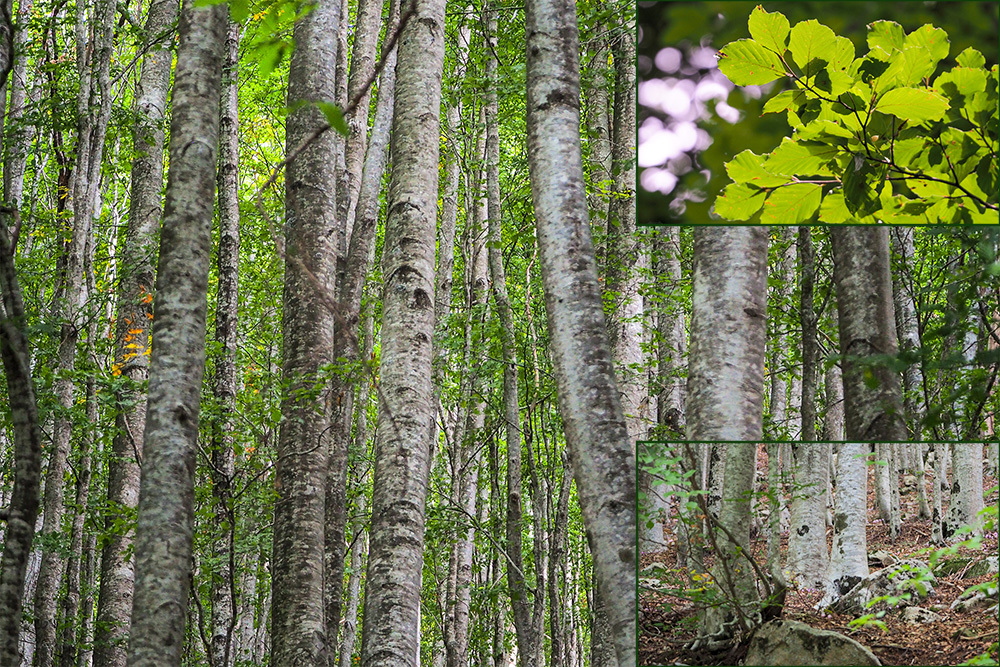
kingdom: Plantae
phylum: Tracheophyta
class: Magnoliopsida
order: Fagales
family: Fagaceae
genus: Fagus
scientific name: Fagus sylvatica
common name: Beech
